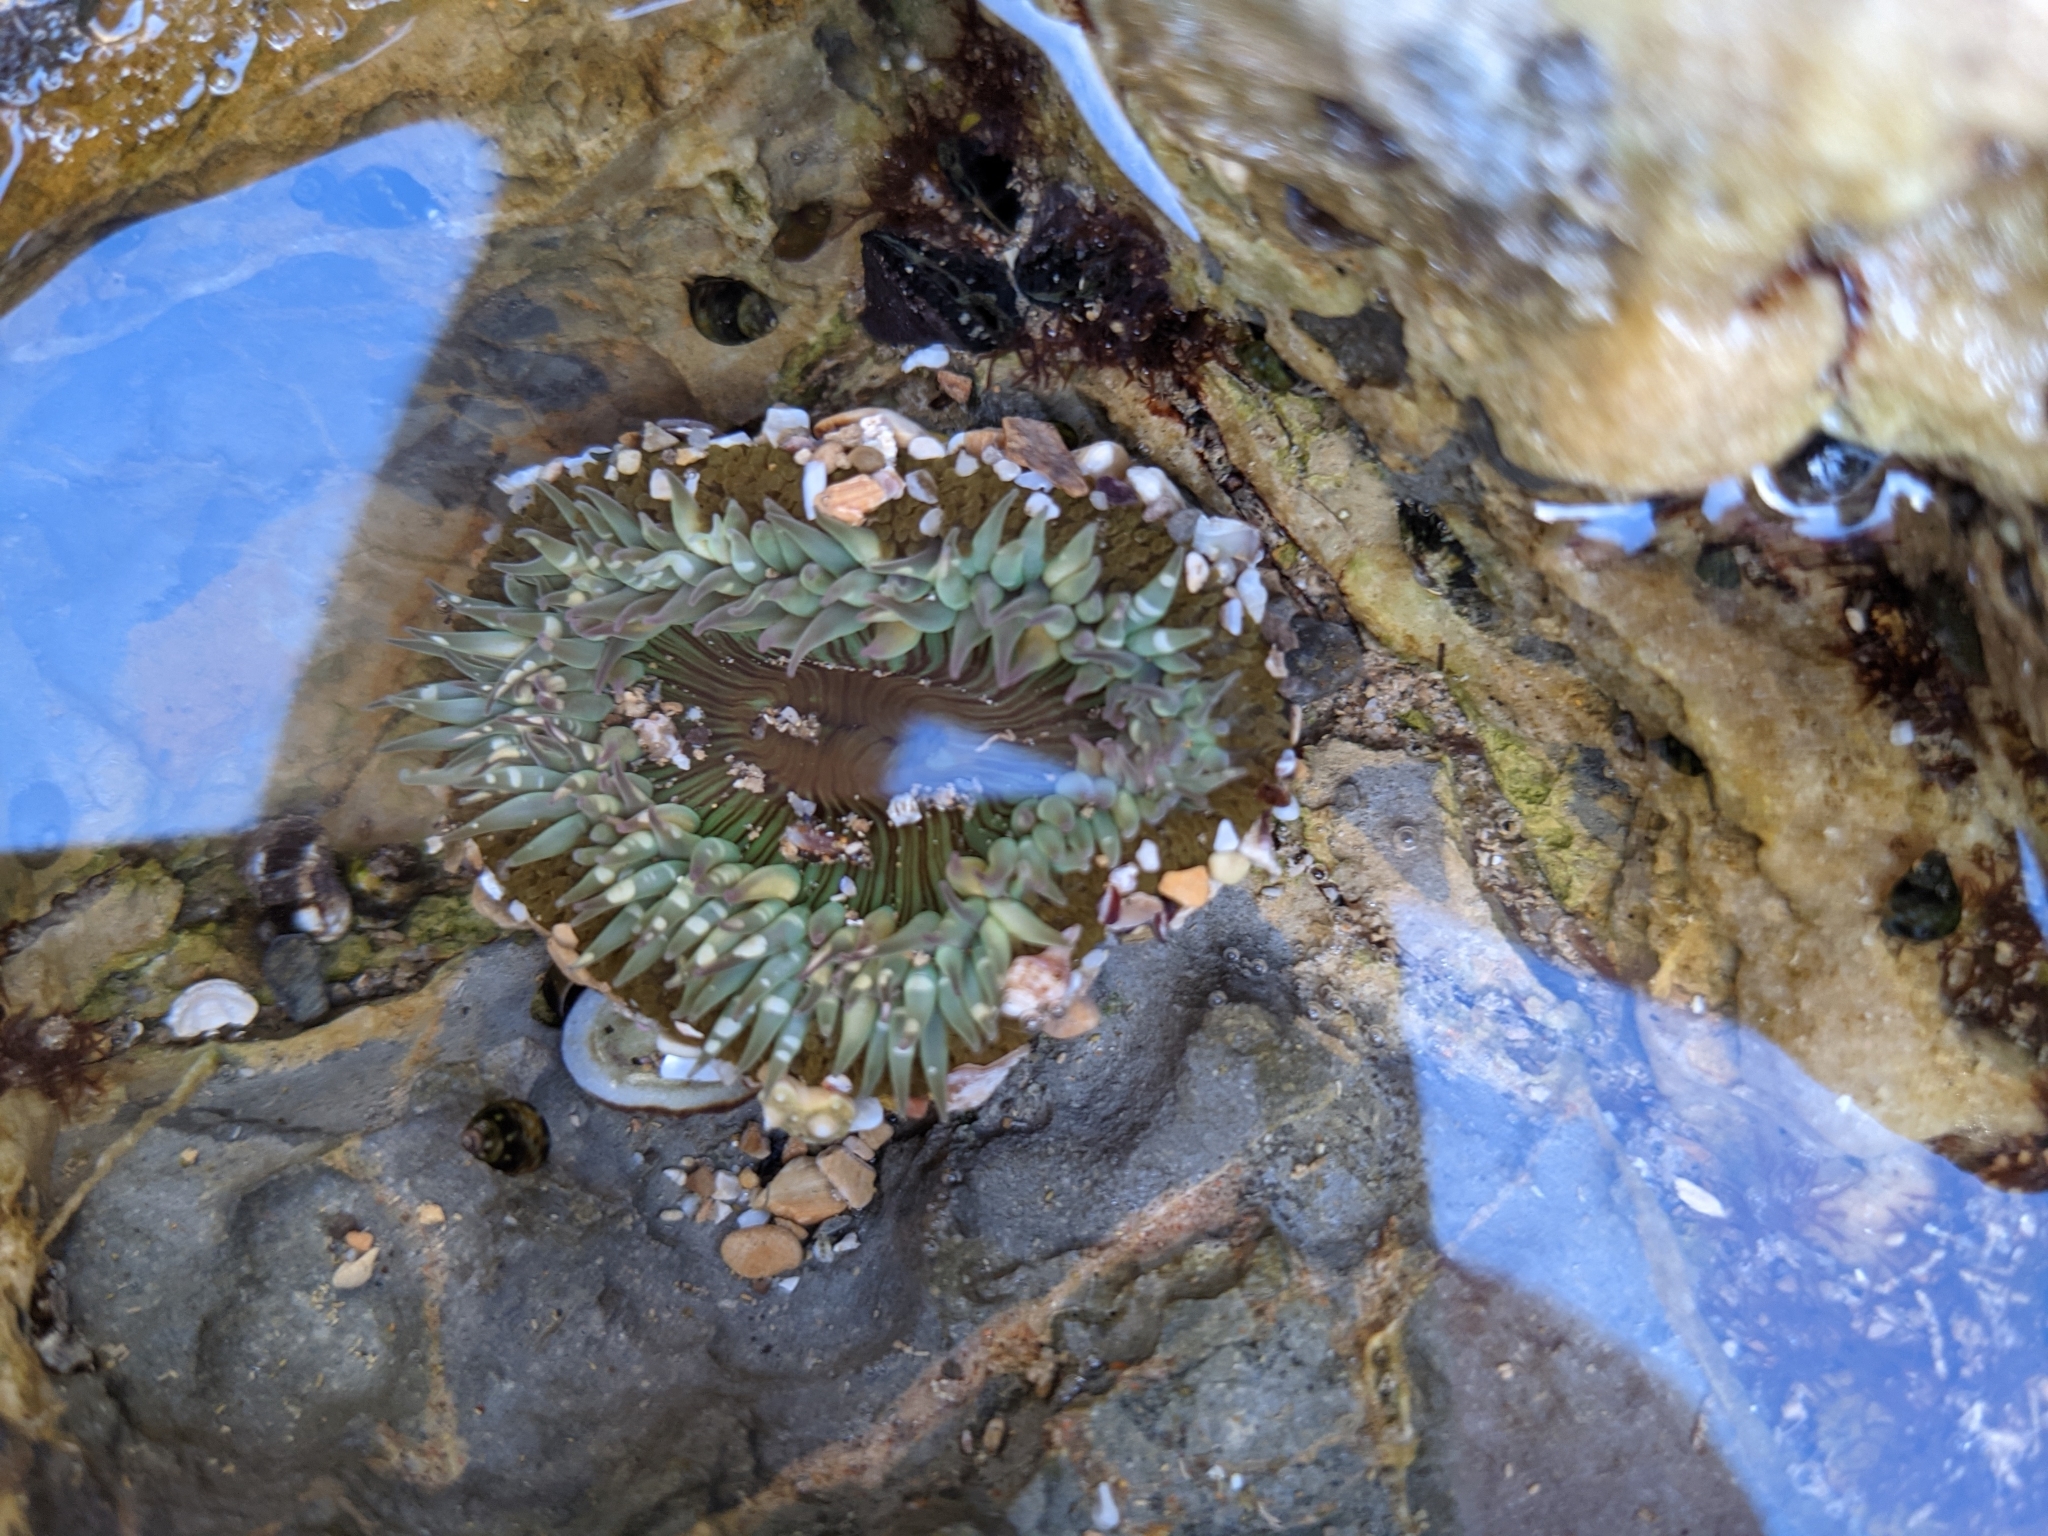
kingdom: Animalia
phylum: Cnidaria
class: Anthozoa
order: Actiniaria
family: Actiniidae
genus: Anthopleura
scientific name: Anthopleura sola
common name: Sun anemone
